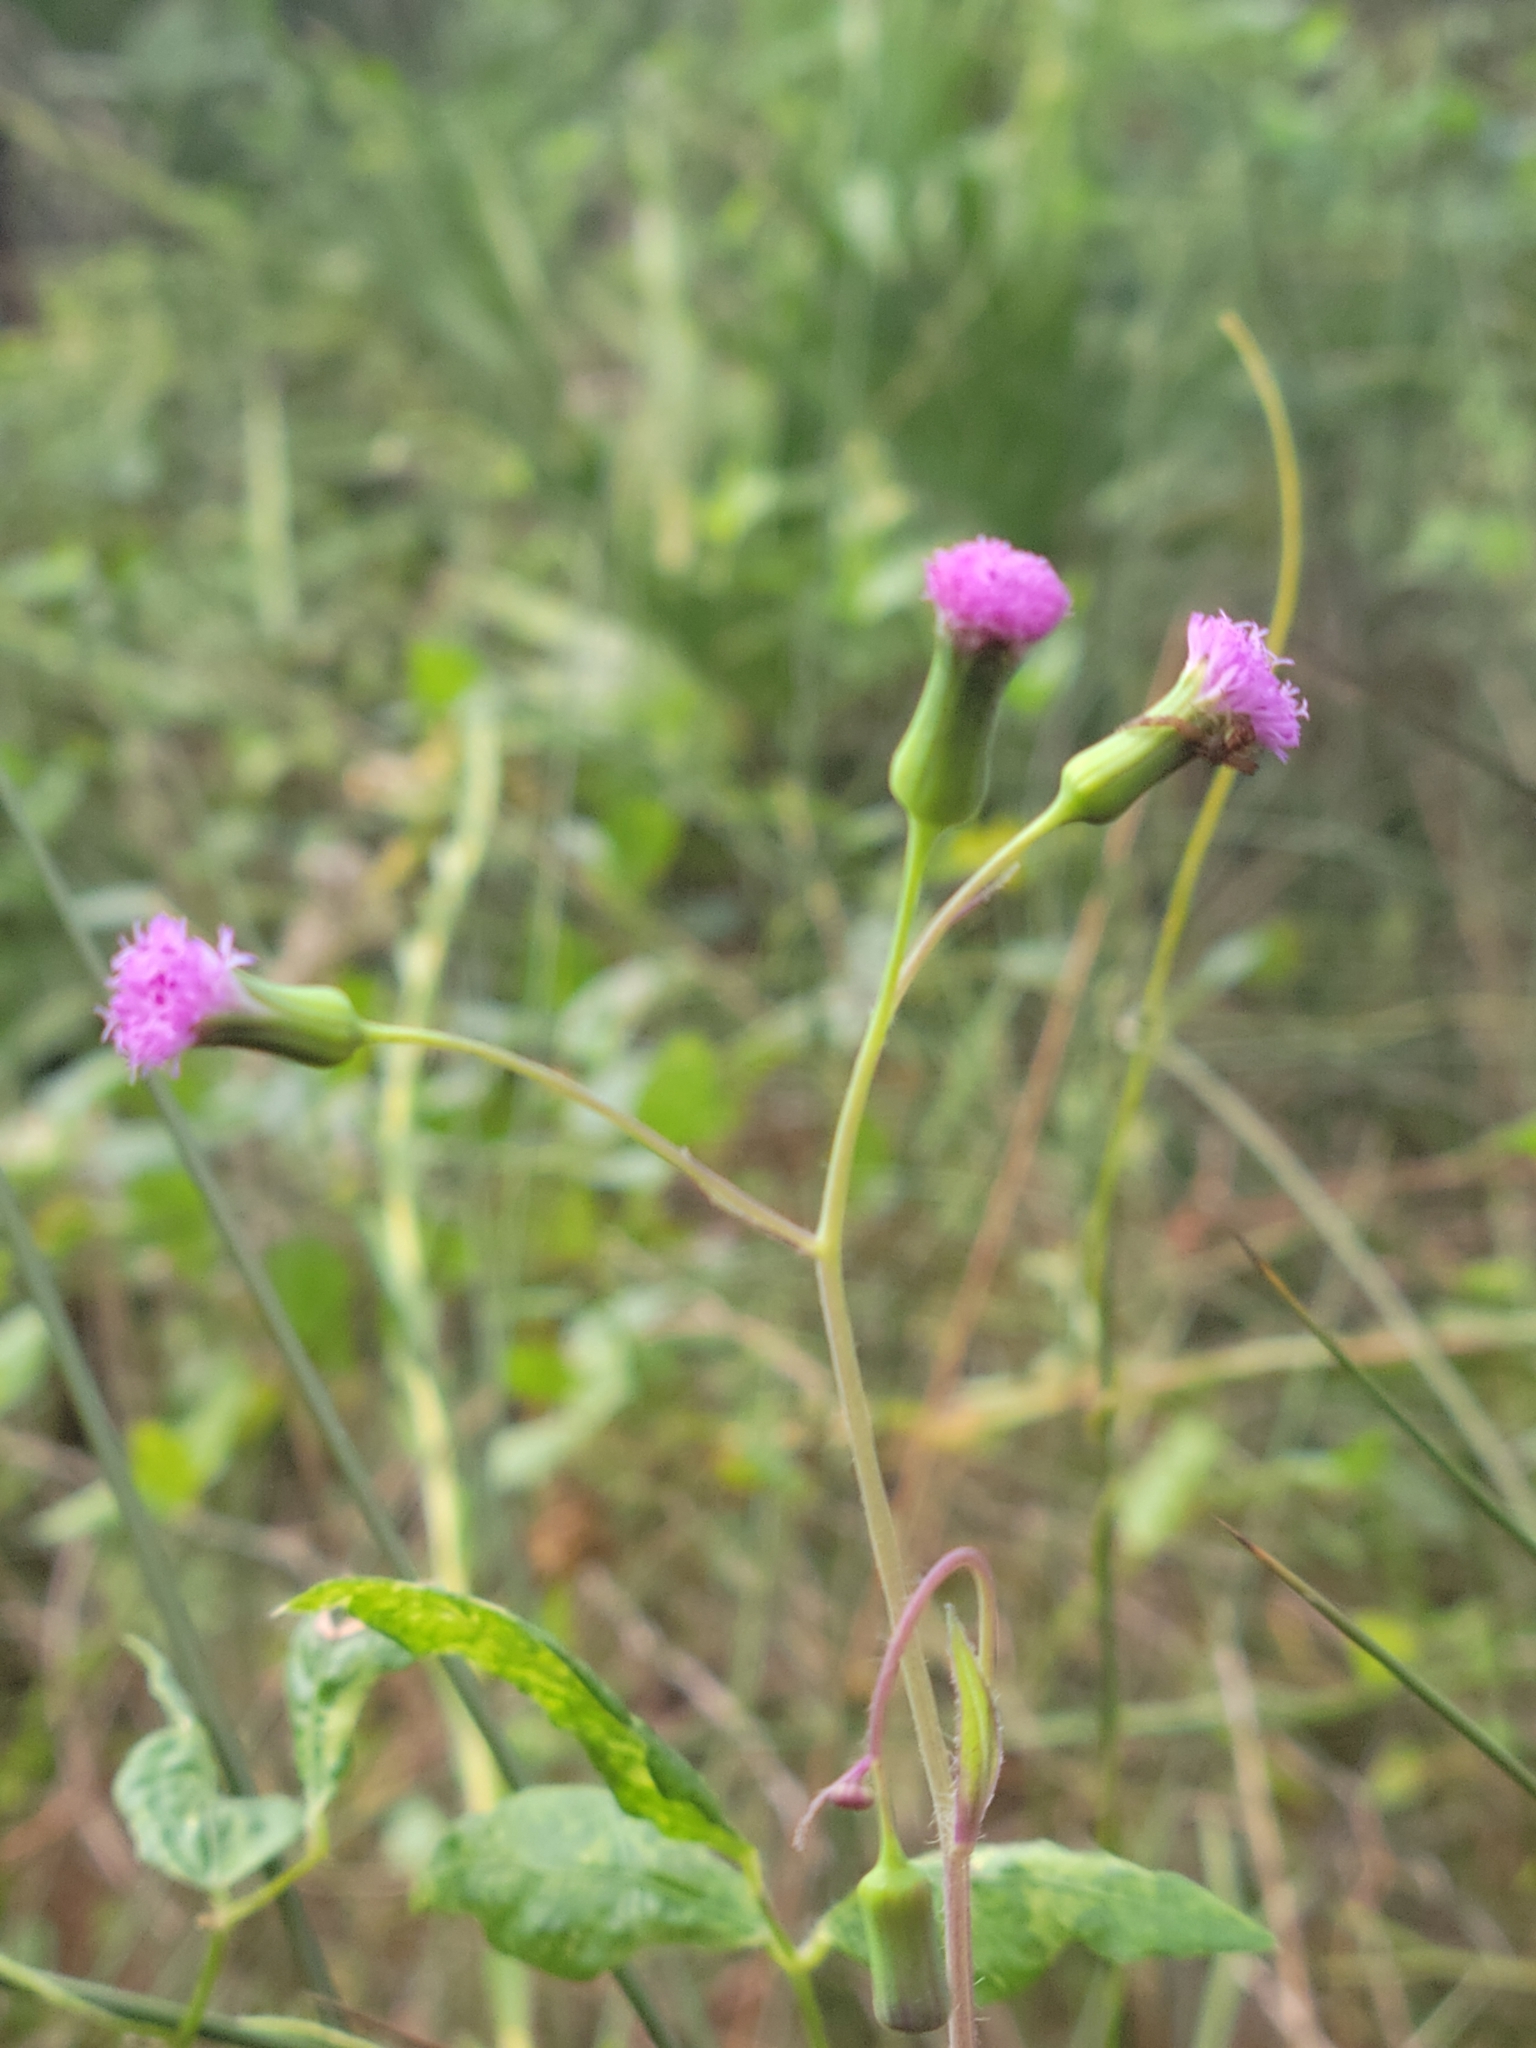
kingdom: Plantae
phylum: Tracheophyta
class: Magnoliopsida
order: Asterales
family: Asteraceae
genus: Emilia
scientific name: Emilia sonchifolia
